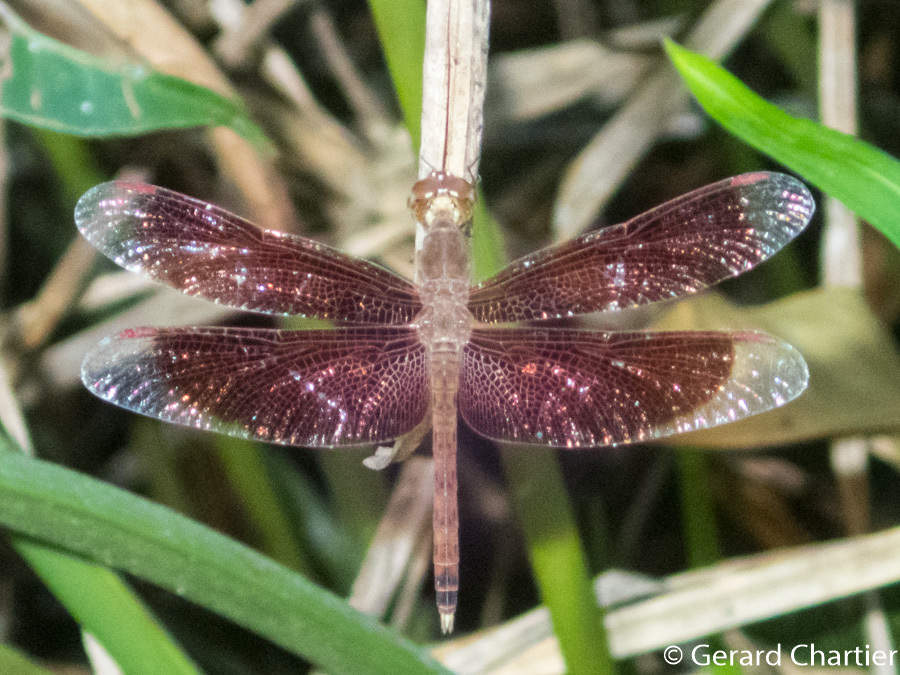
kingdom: Animalia
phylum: Arthropoda
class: Insecta
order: Odonata
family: Libellulidae
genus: Neurothemis
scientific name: Neurothemis fluctuans
